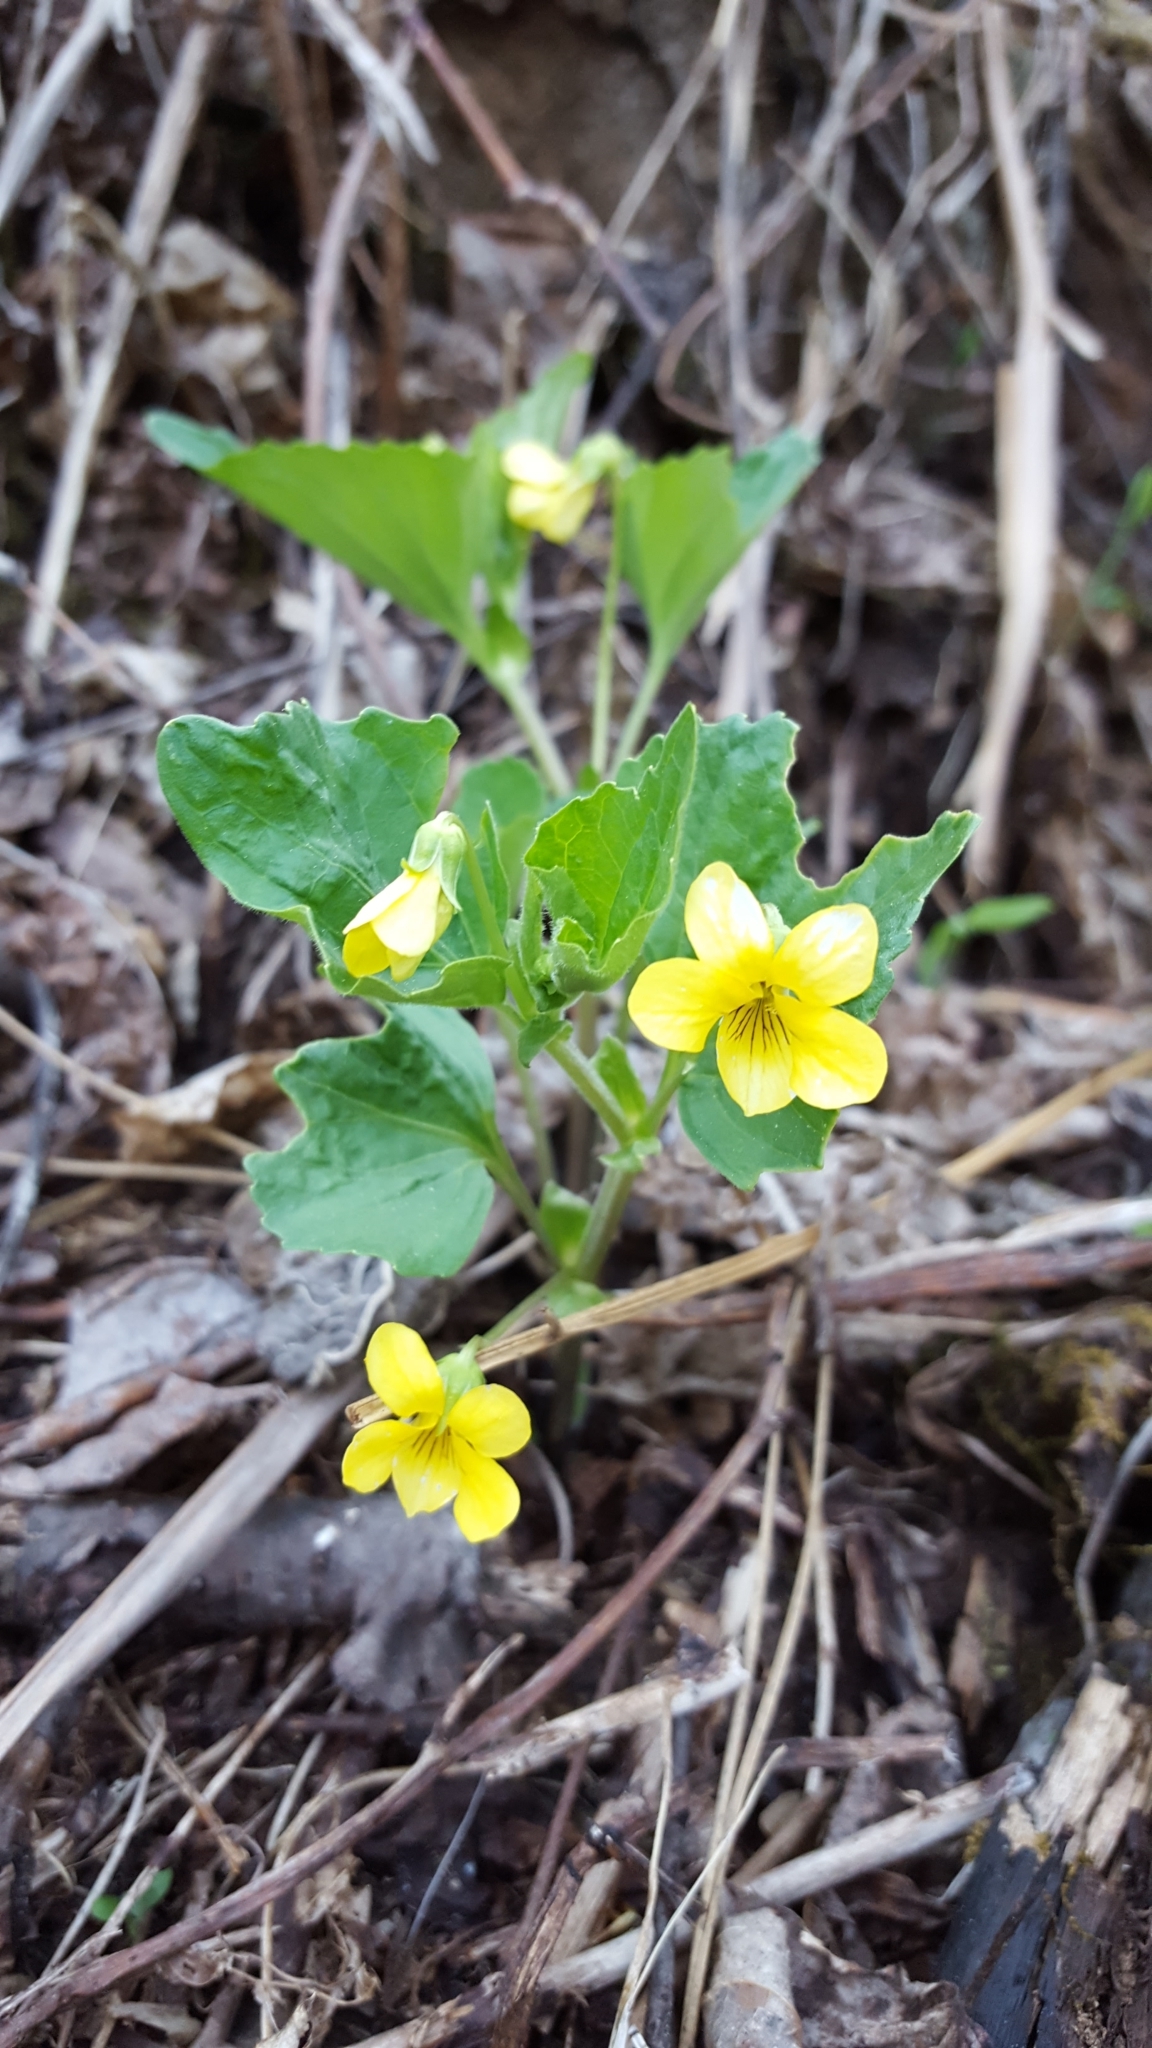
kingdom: Plantae
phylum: Tracheophyta
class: Magnoliopsida
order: Malpighiales
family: Violaceae
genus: Viola
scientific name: Viola eriocarpa
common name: Smooth yellow violet
